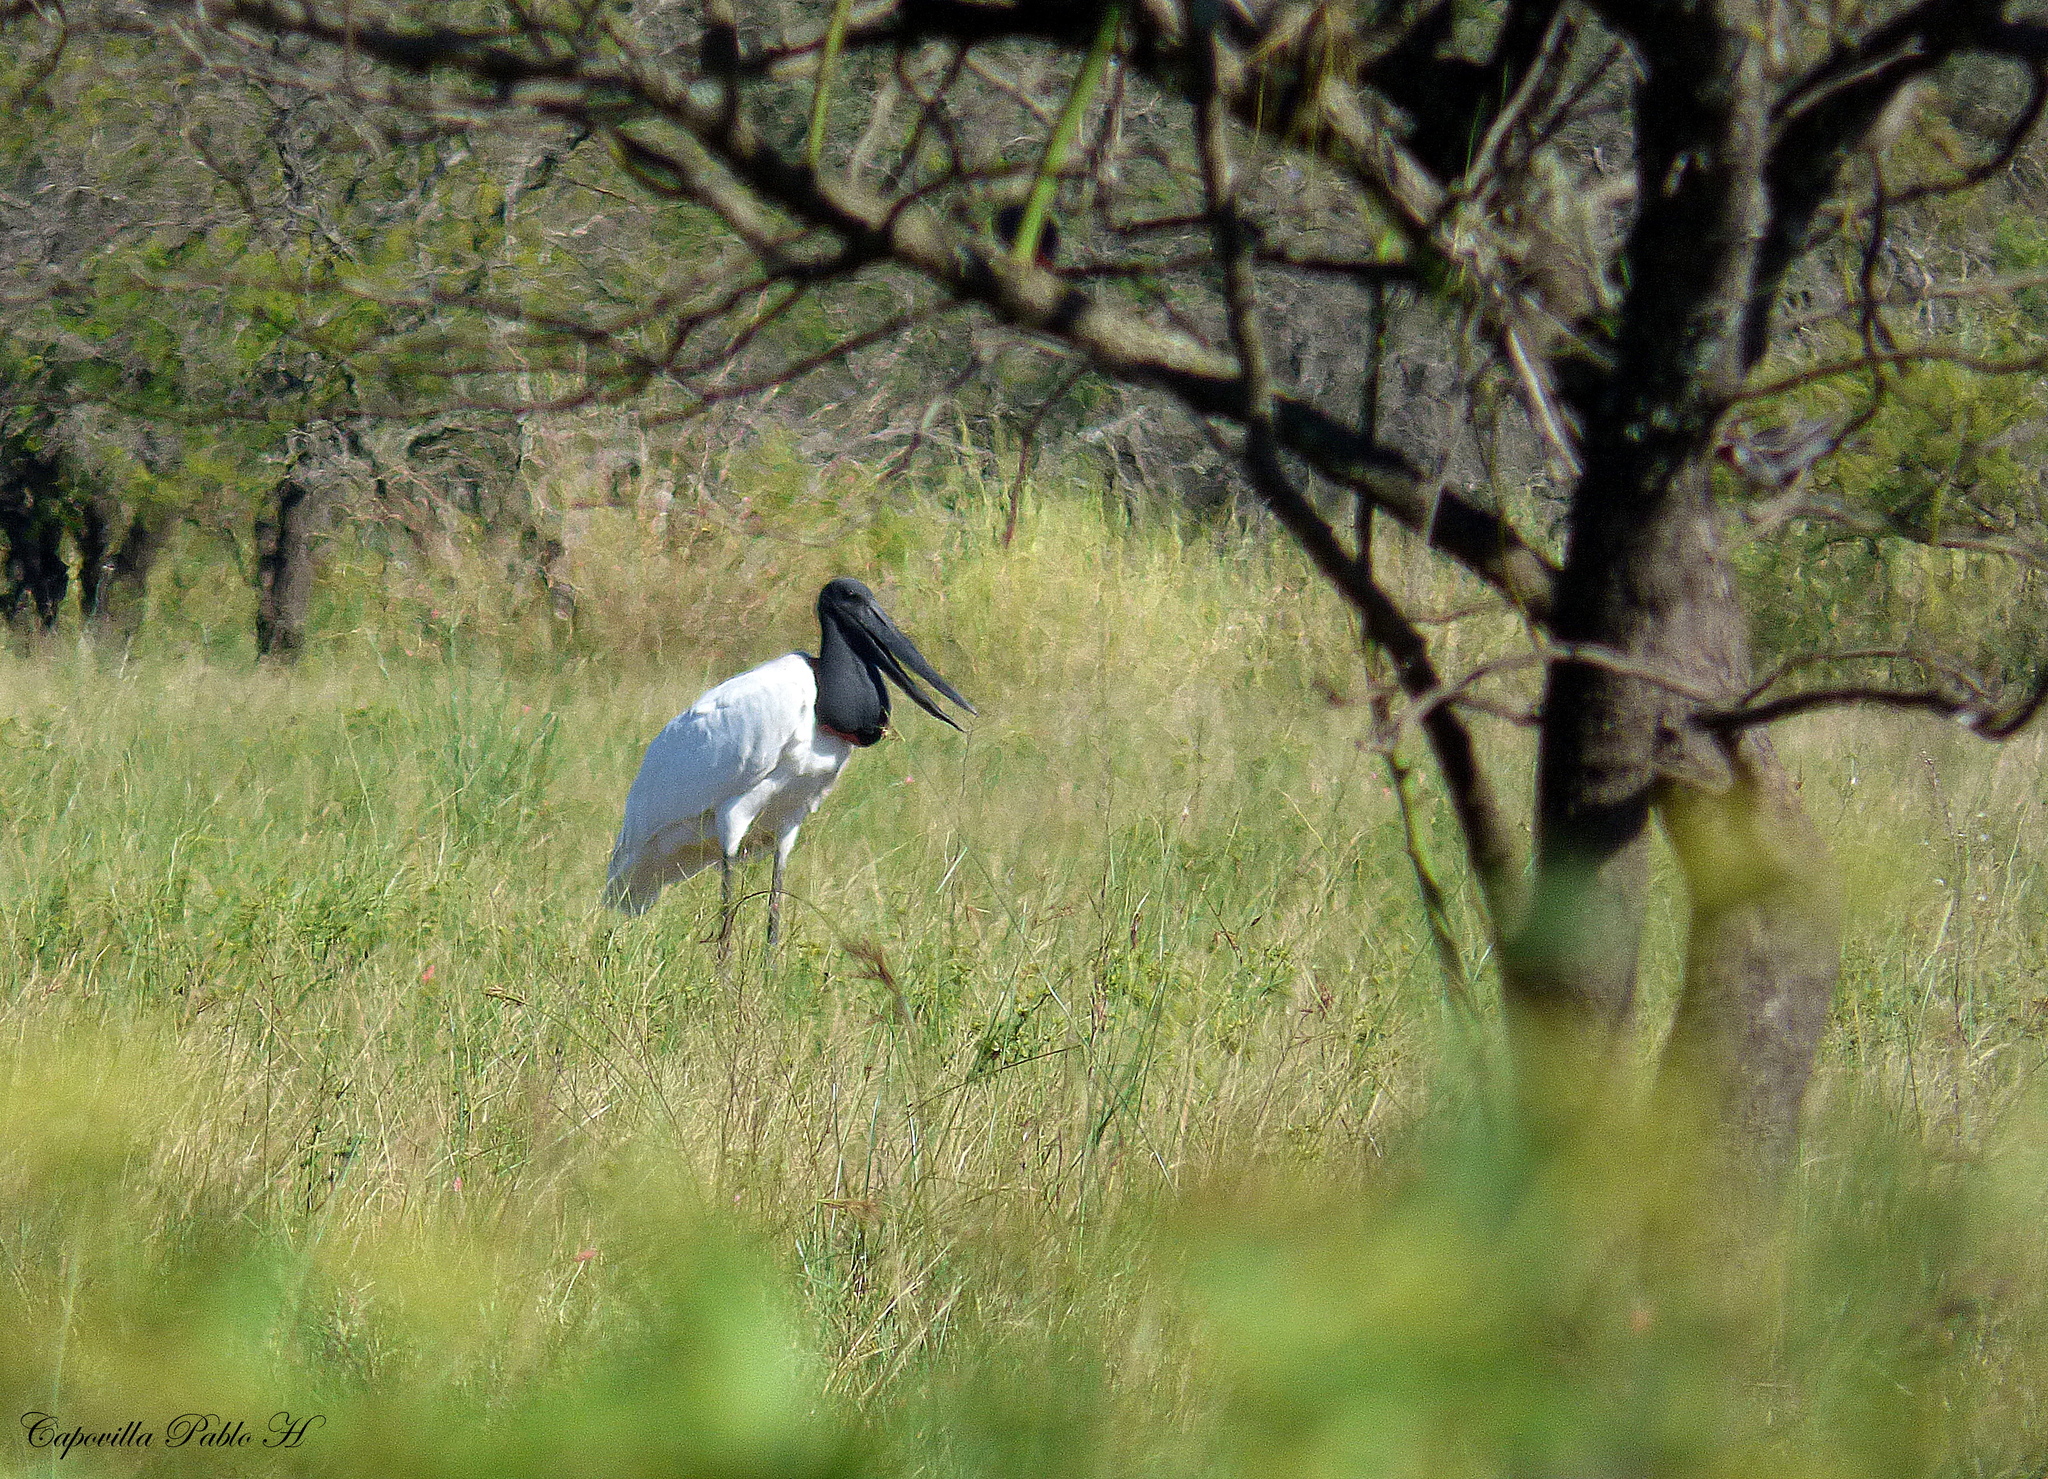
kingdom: Animalia
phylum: Chordata
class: Aves
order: Ciconiiformes
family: Ciconiidae
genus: Jabiru
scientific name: Jabiru mycteria
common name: Jabiru
